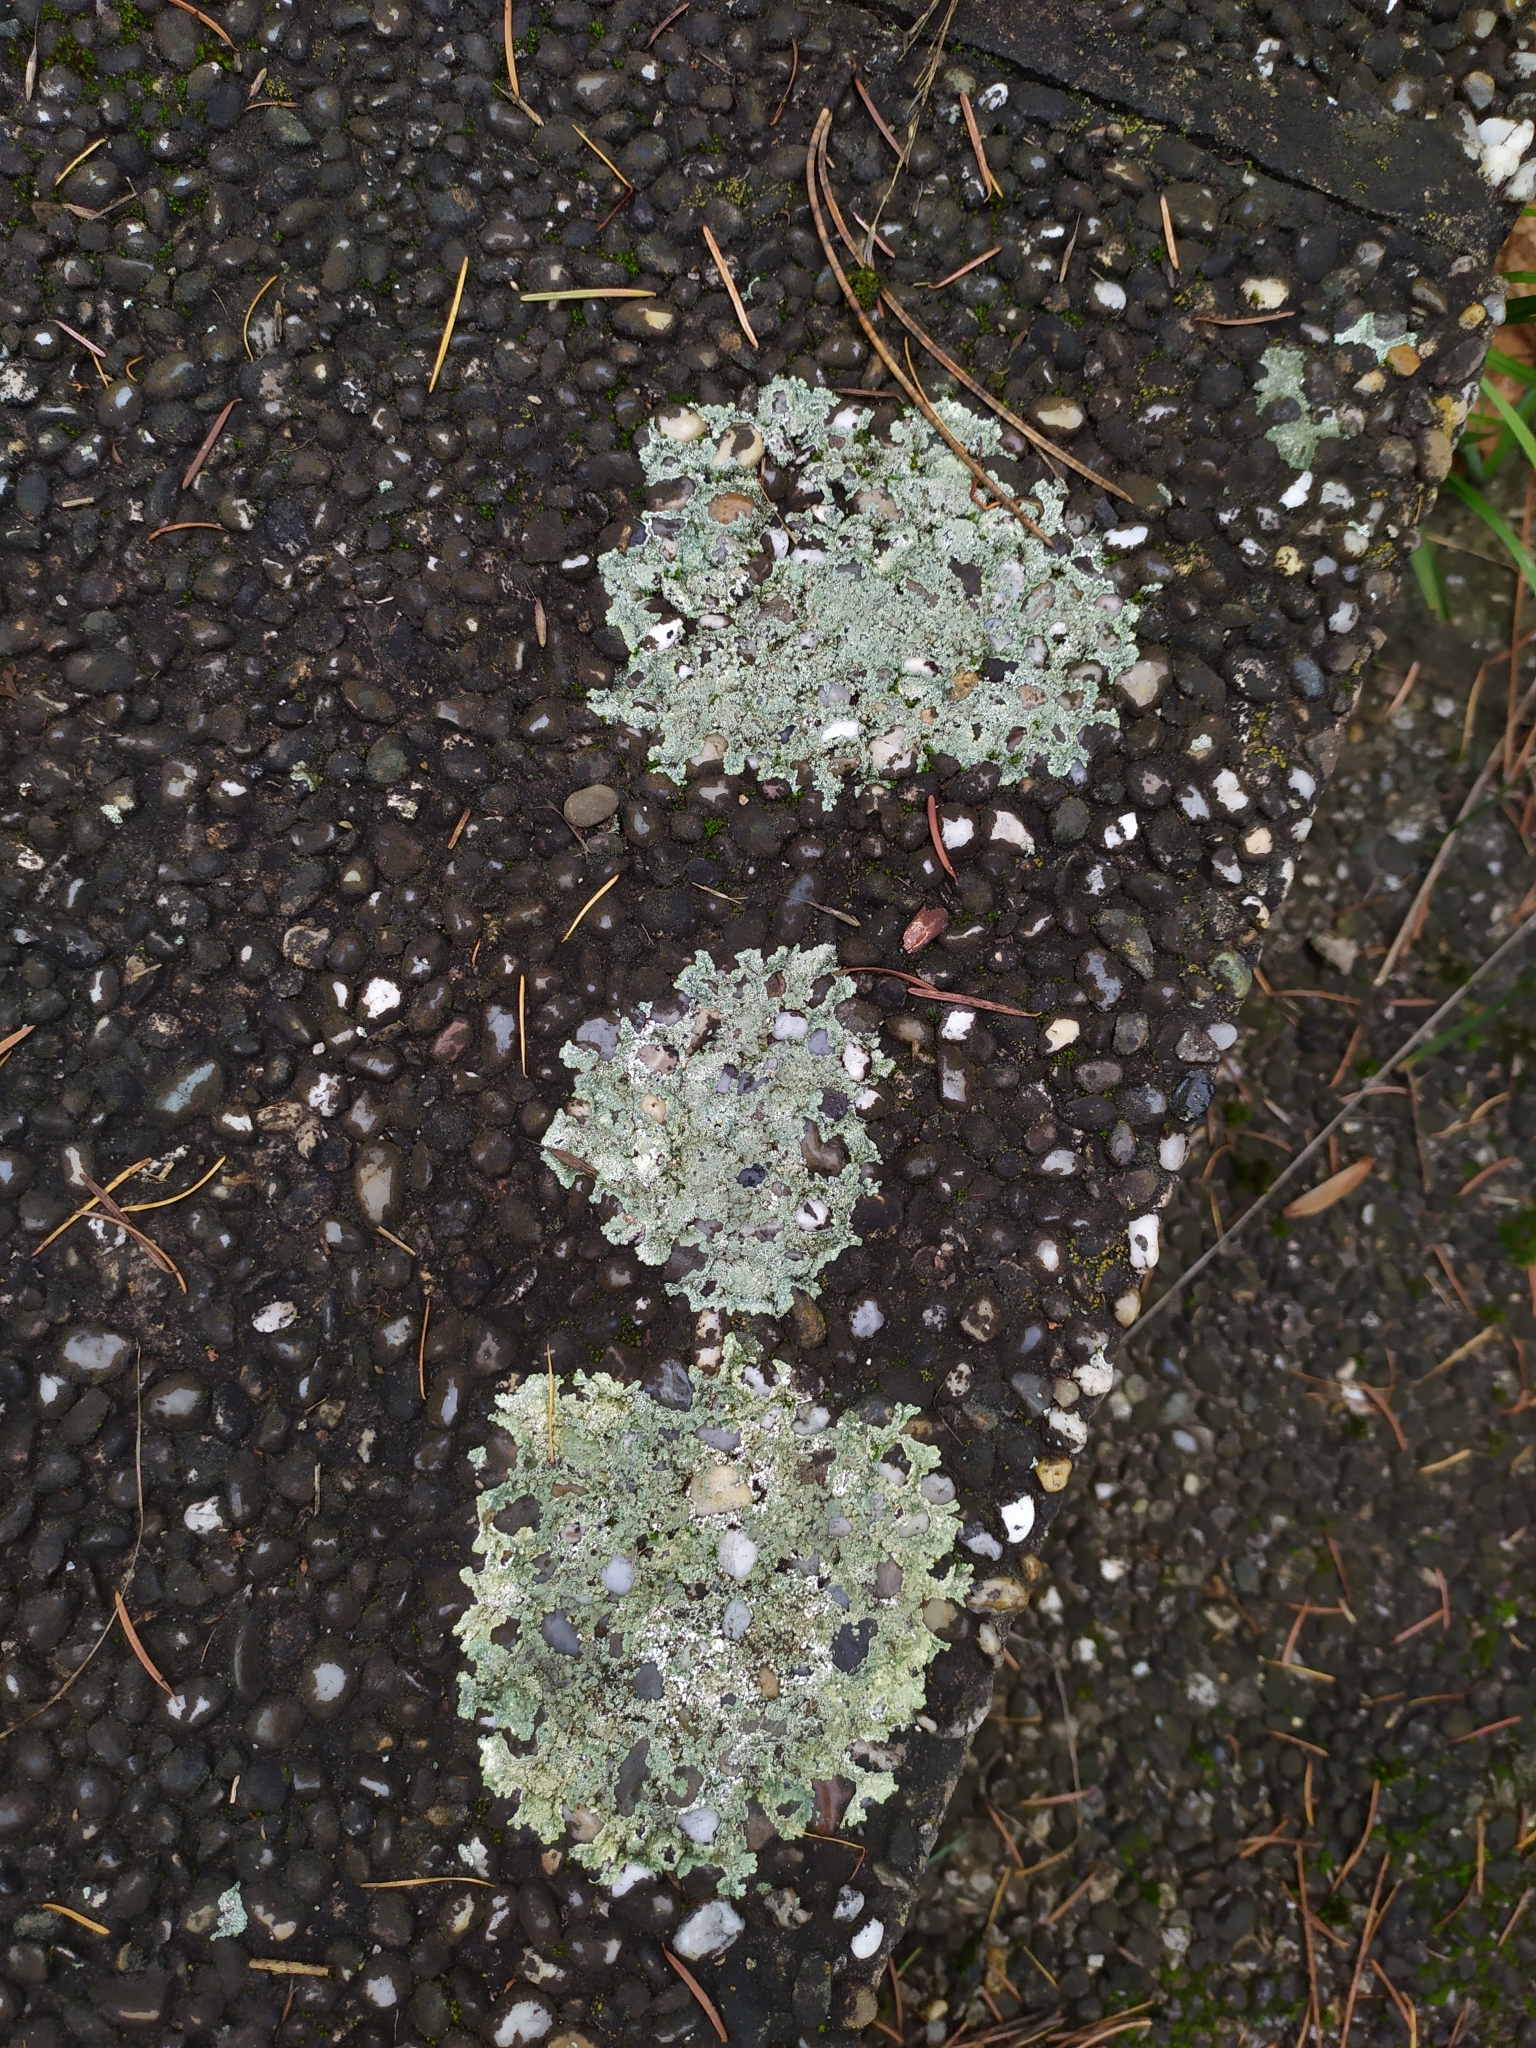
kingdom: Fungi
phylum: Ascomycota
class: Lecanoromycetes
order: Lecanorales
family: Lecanoraceae
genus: Protoparmeliopsis
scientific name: Protoparmeliopsis muralis
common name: Stonewall rim lichen
